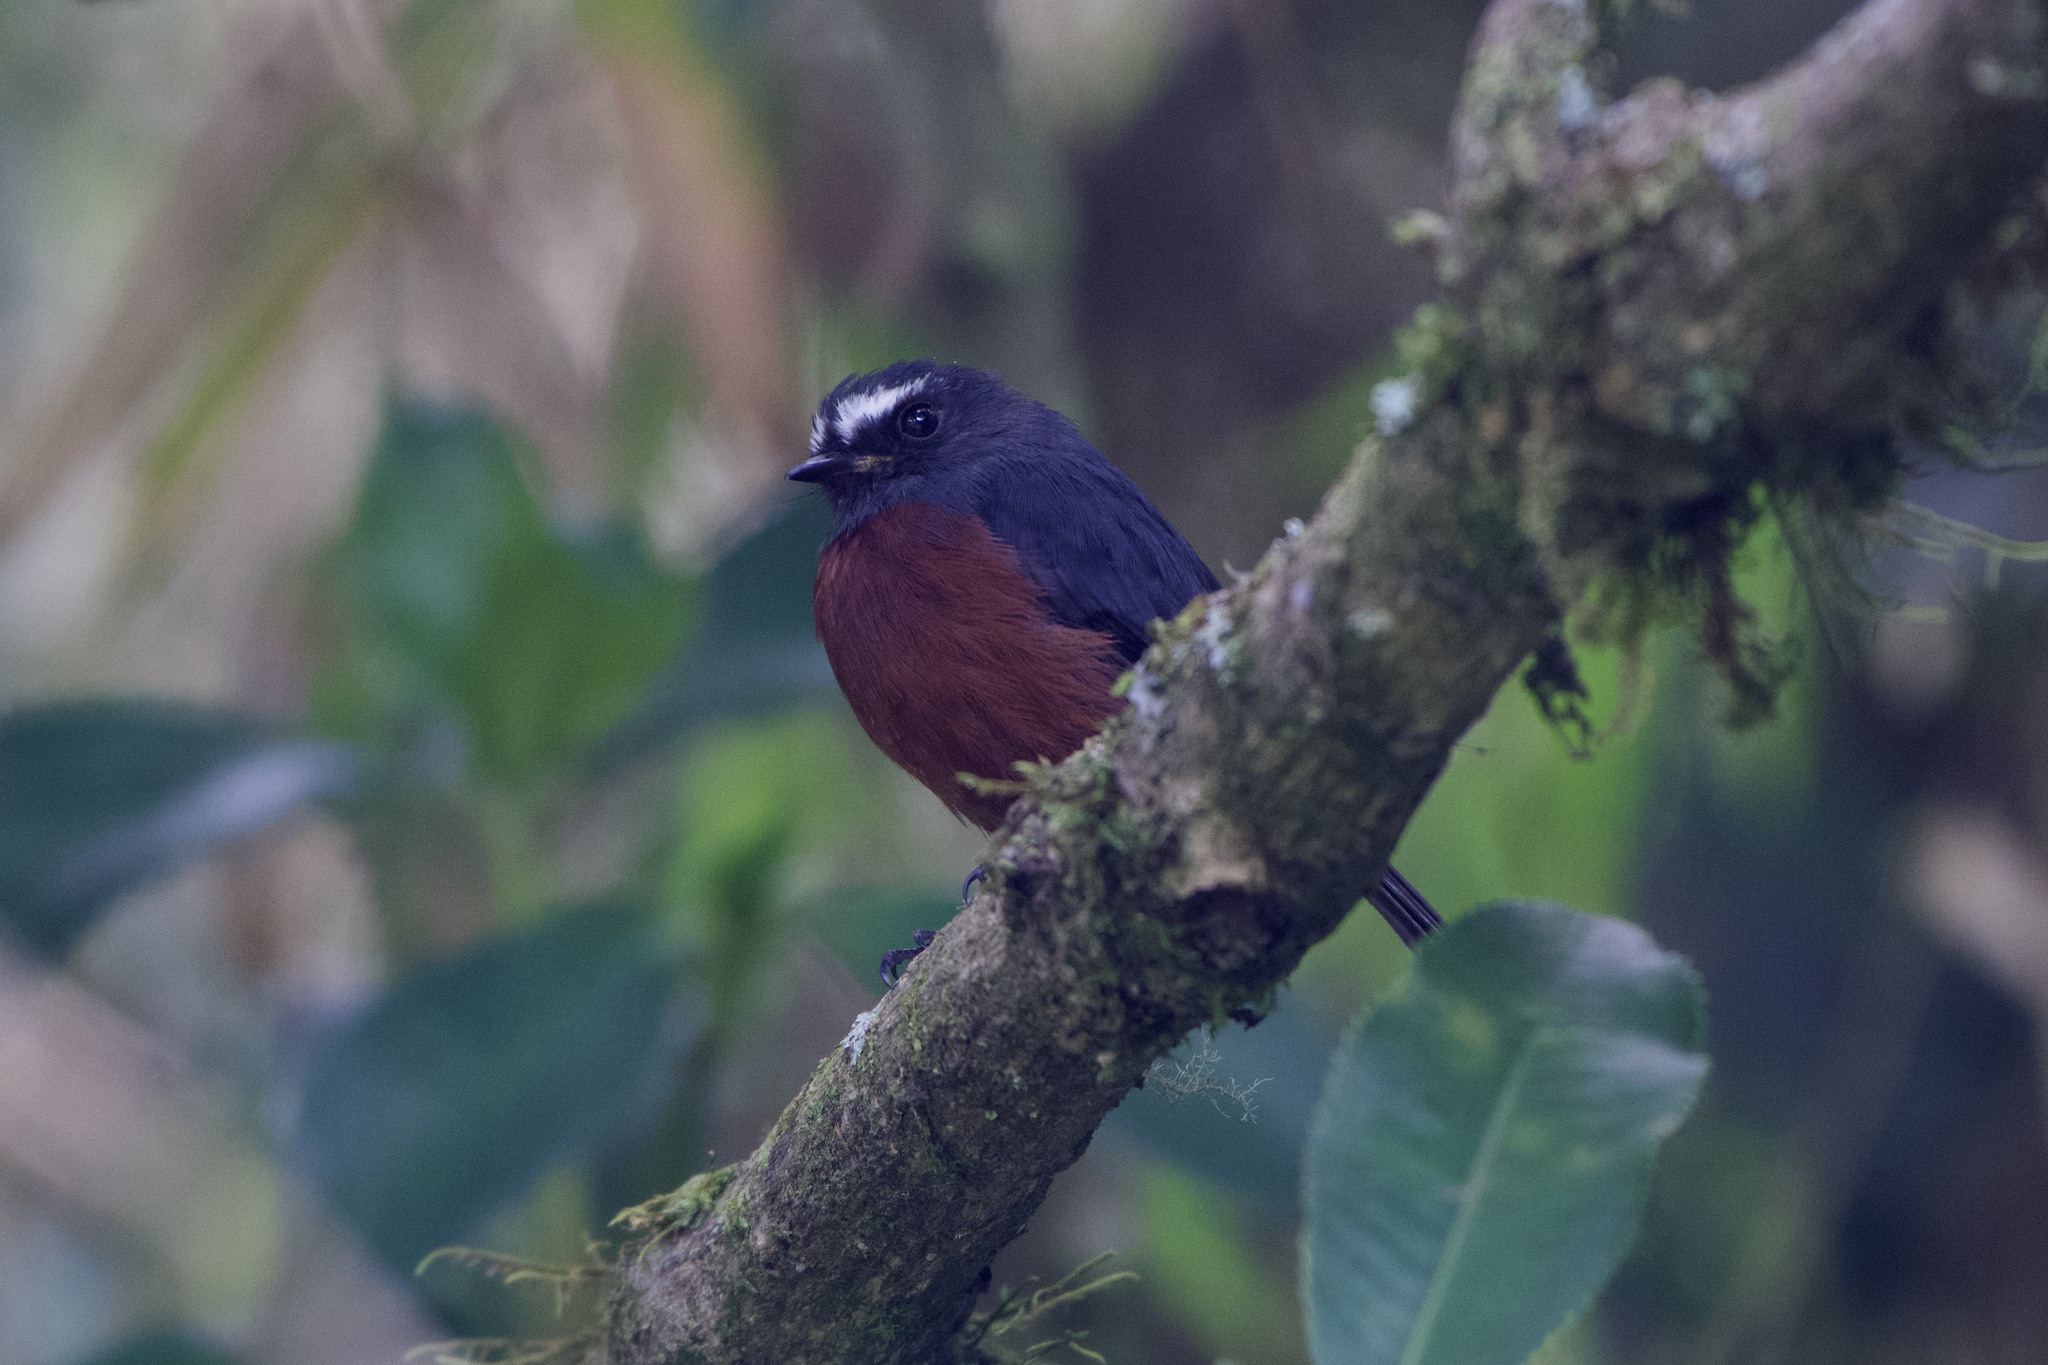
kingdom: Animalia
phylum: Chordata
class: Aves
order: Passeriformes
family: Tyrannidae
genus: Ochthoeca
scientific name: Ochthoeca cinnamomeiventris
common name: Slaty-backed chat-tyrant
